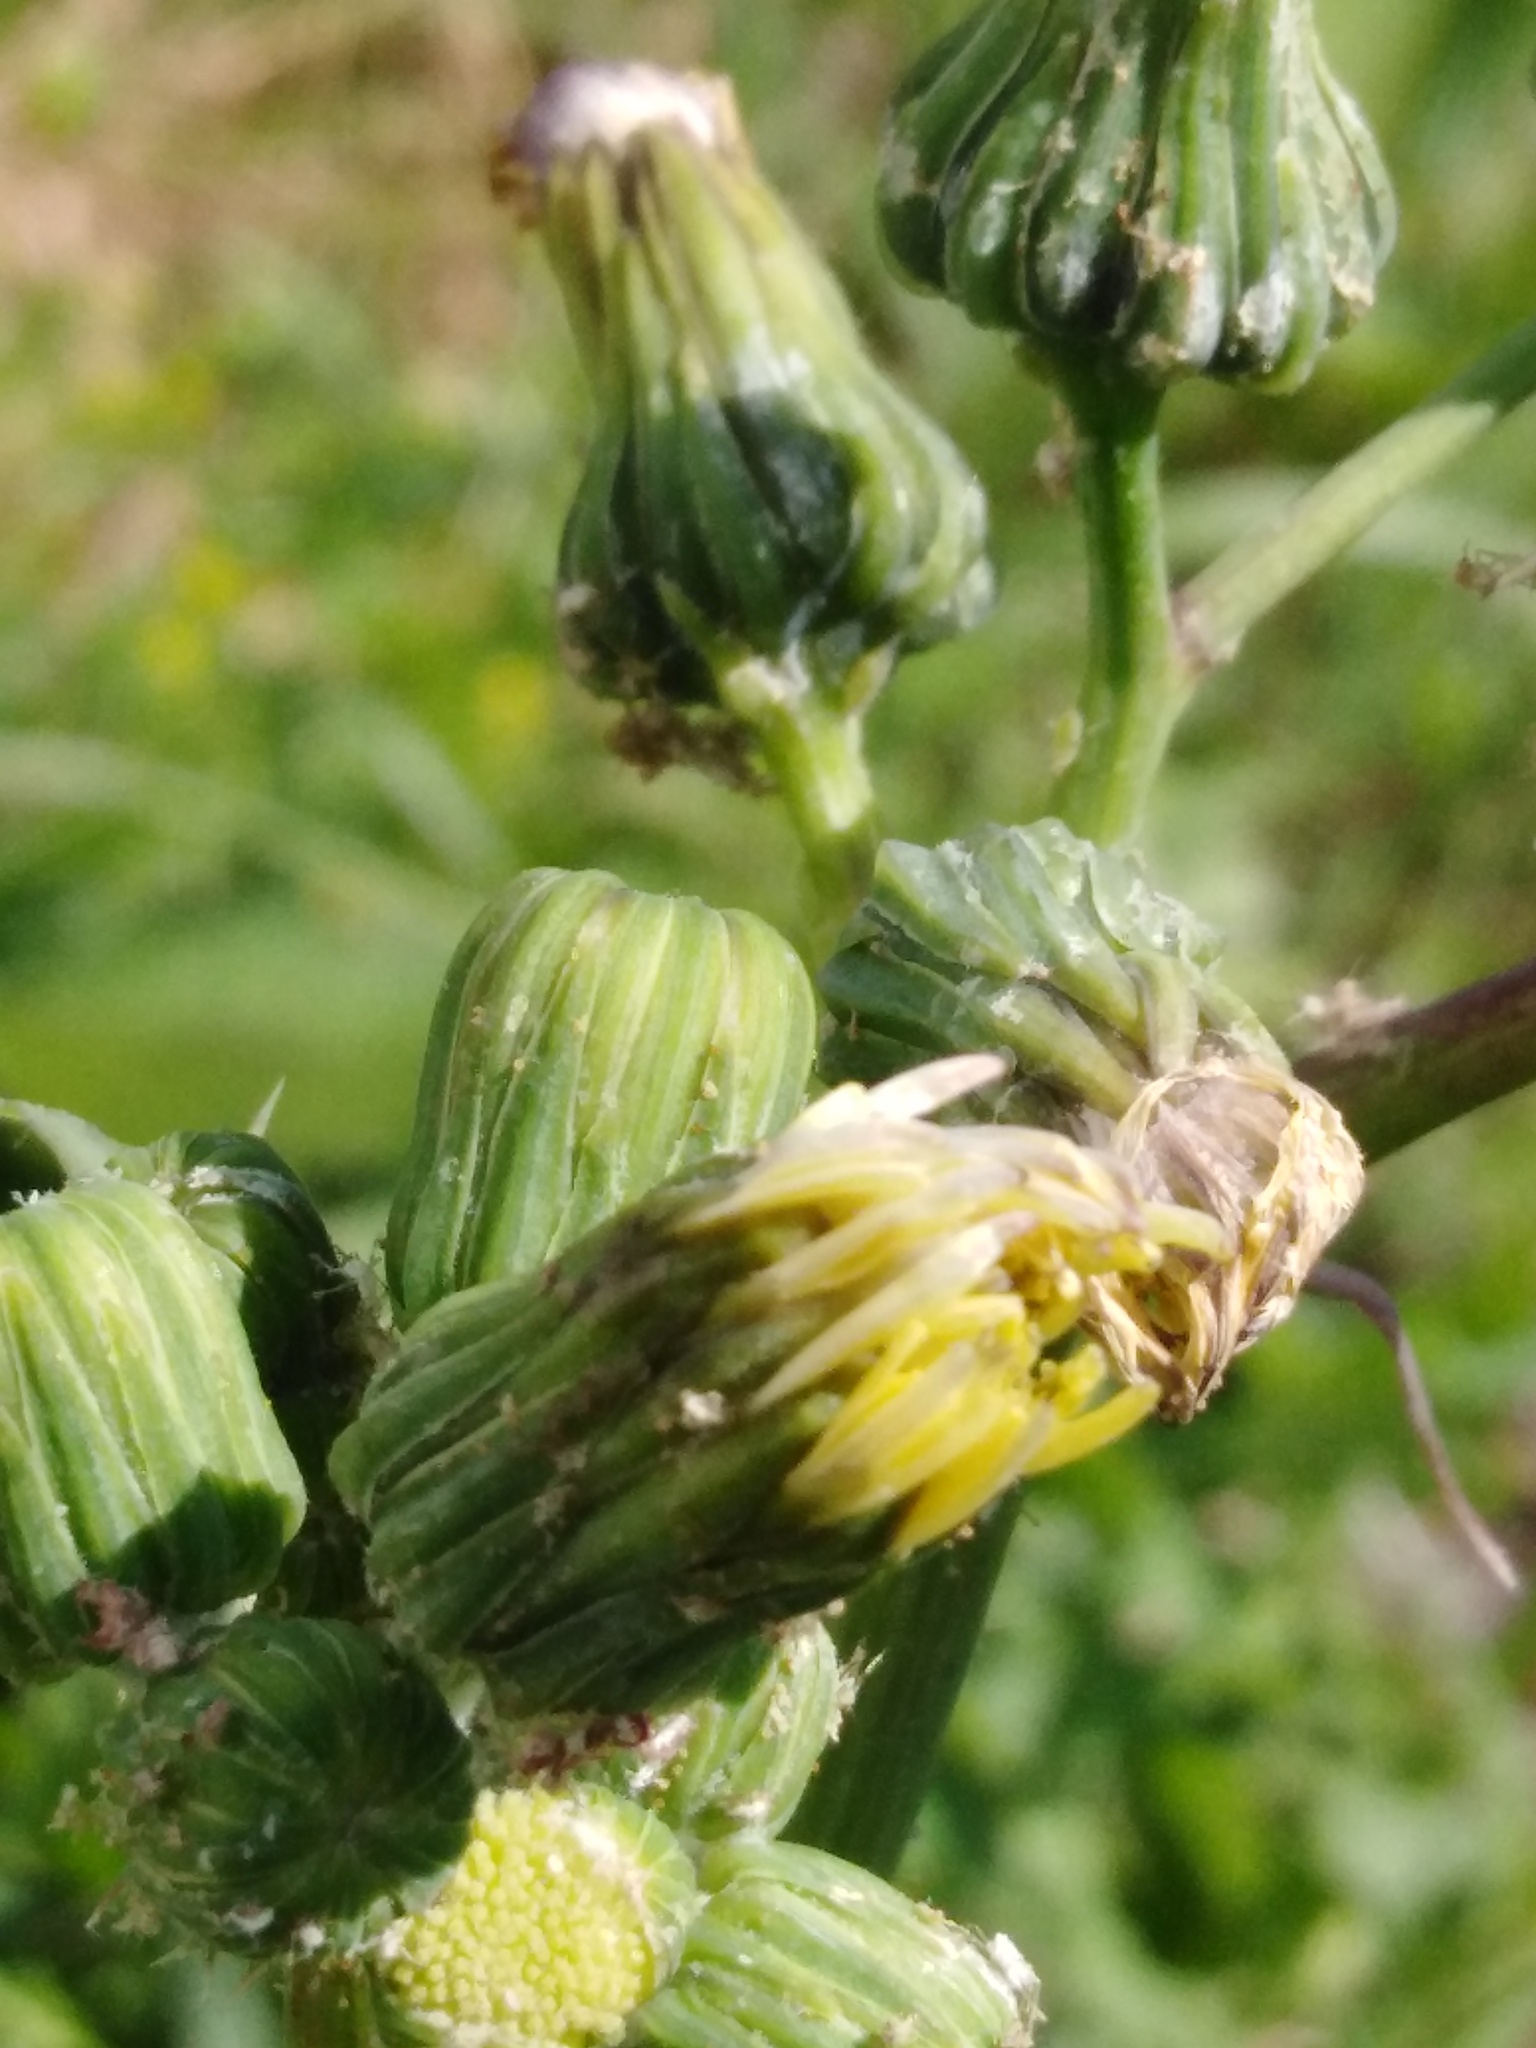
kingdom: Plantae
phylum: Tracheophyta
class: Magnoliopsida
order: Asterales
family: Asteraceae
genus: Sonchus
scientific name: Sonchus asper
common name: Prickly sow-thistle
